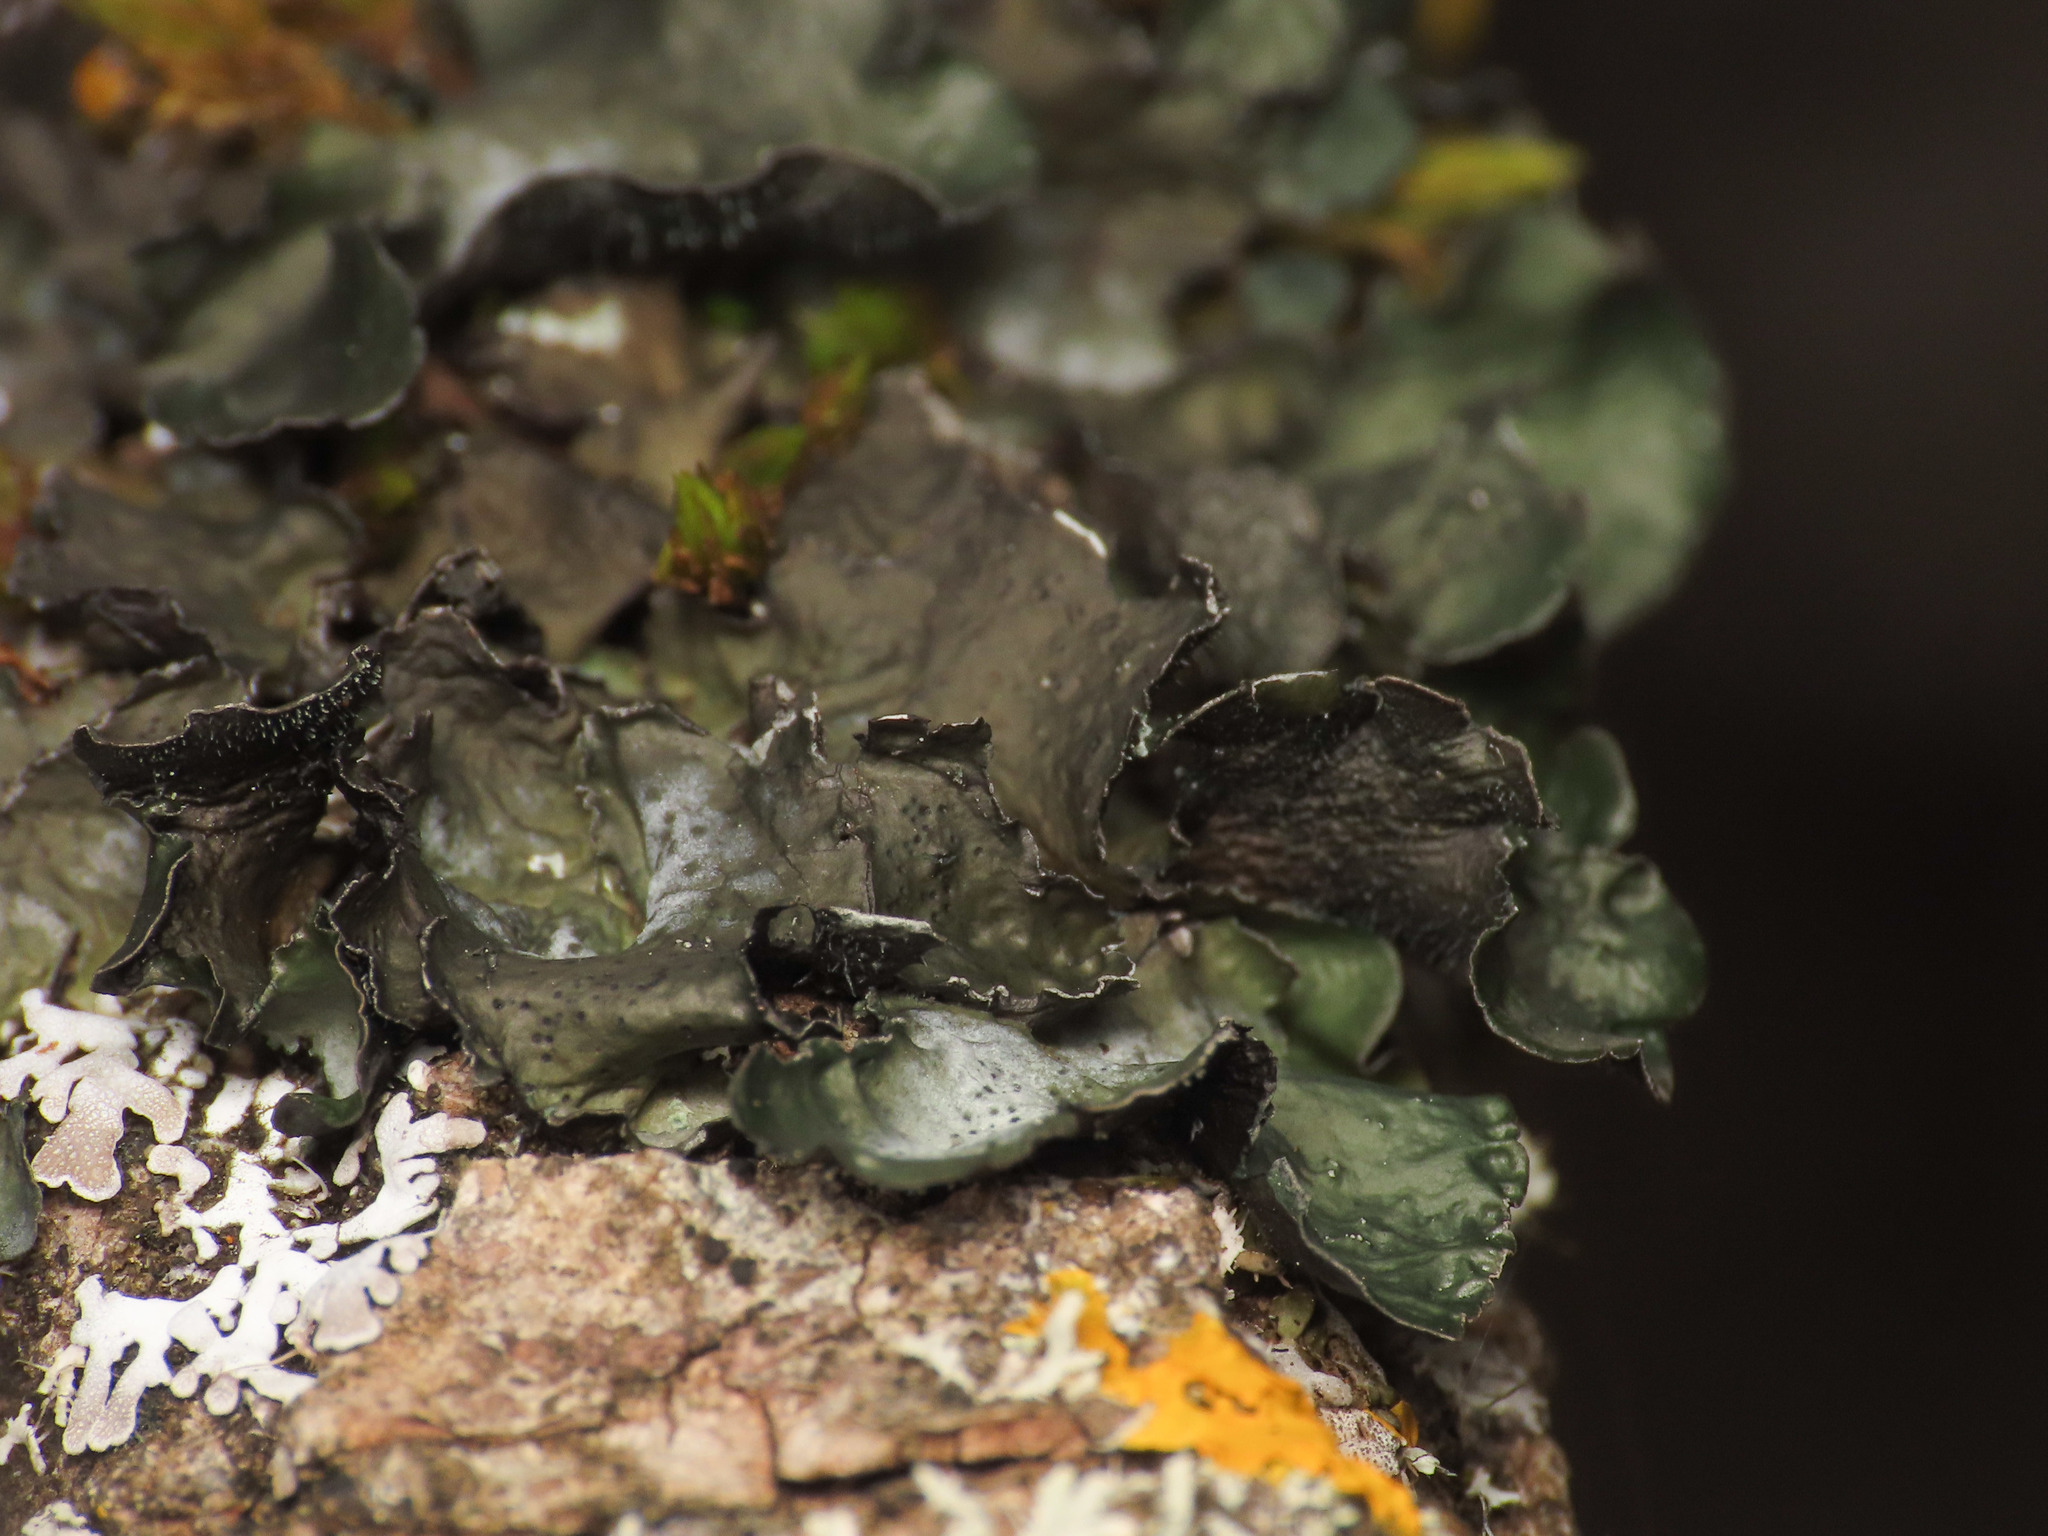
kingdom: Fungi
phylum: Ascomycota
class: Lecanoromycetes
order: Lecanorales
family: Parmeliaceae
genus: Pleurosticta
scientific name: Pleurosticta acetabulum
